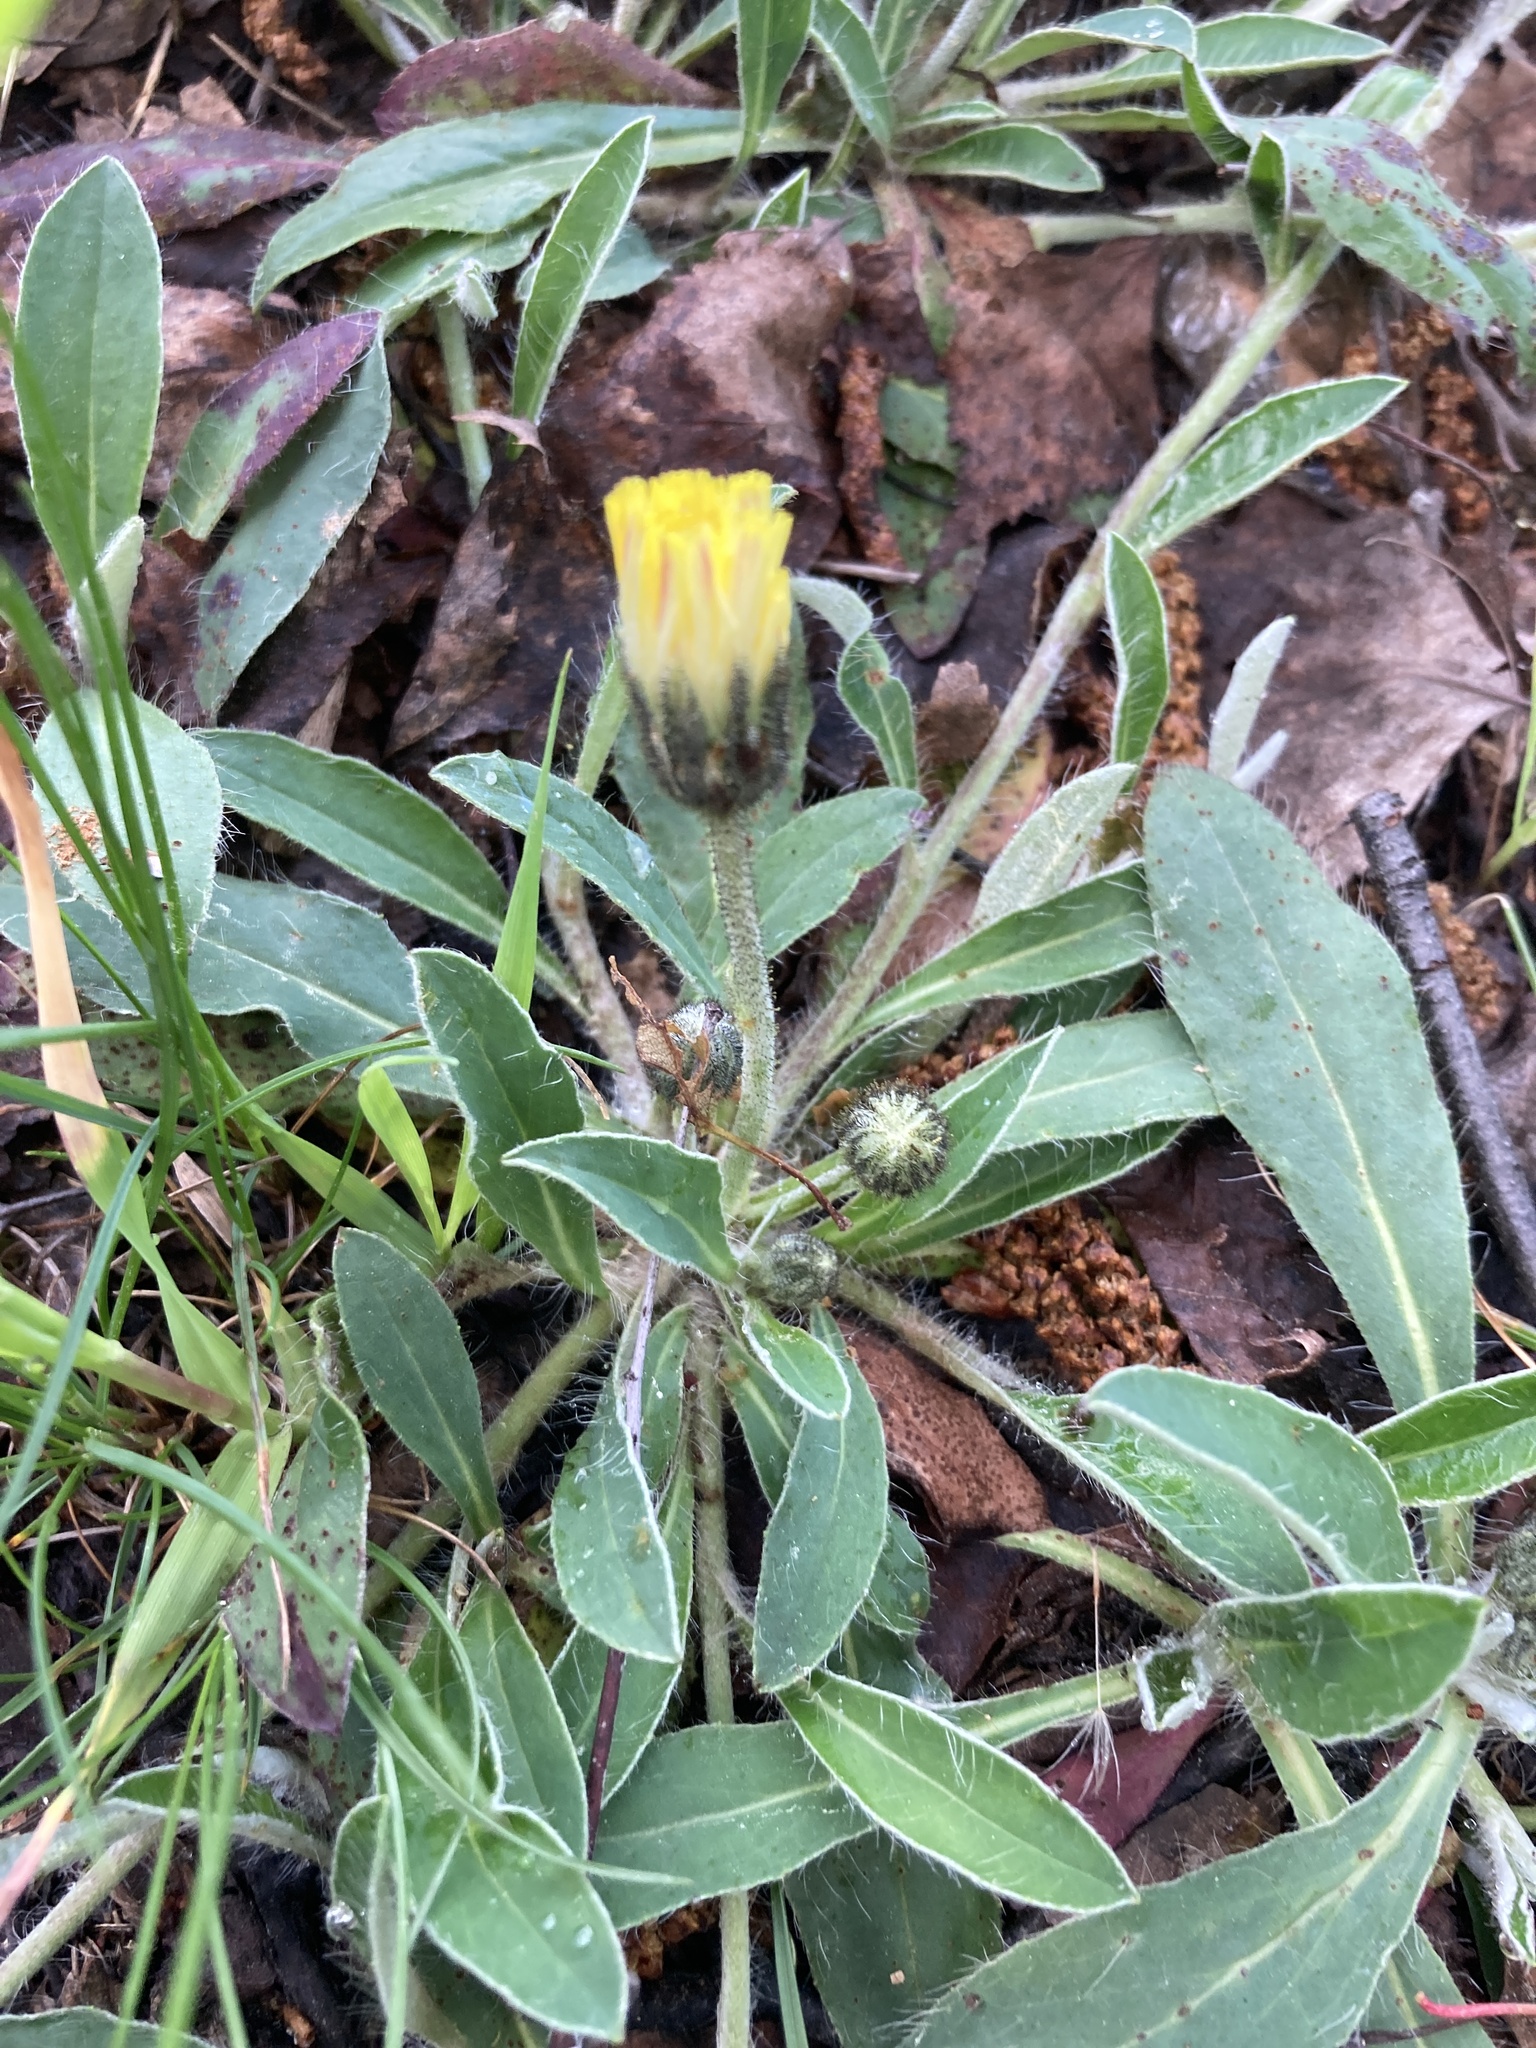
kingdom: Plantae
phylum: Tracheophyta
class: Magnoliopsida
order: Asterales
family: Asteraceae
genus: Pilosella
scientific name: Pilosella officinarum
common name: Mouse-ear hawkweed
